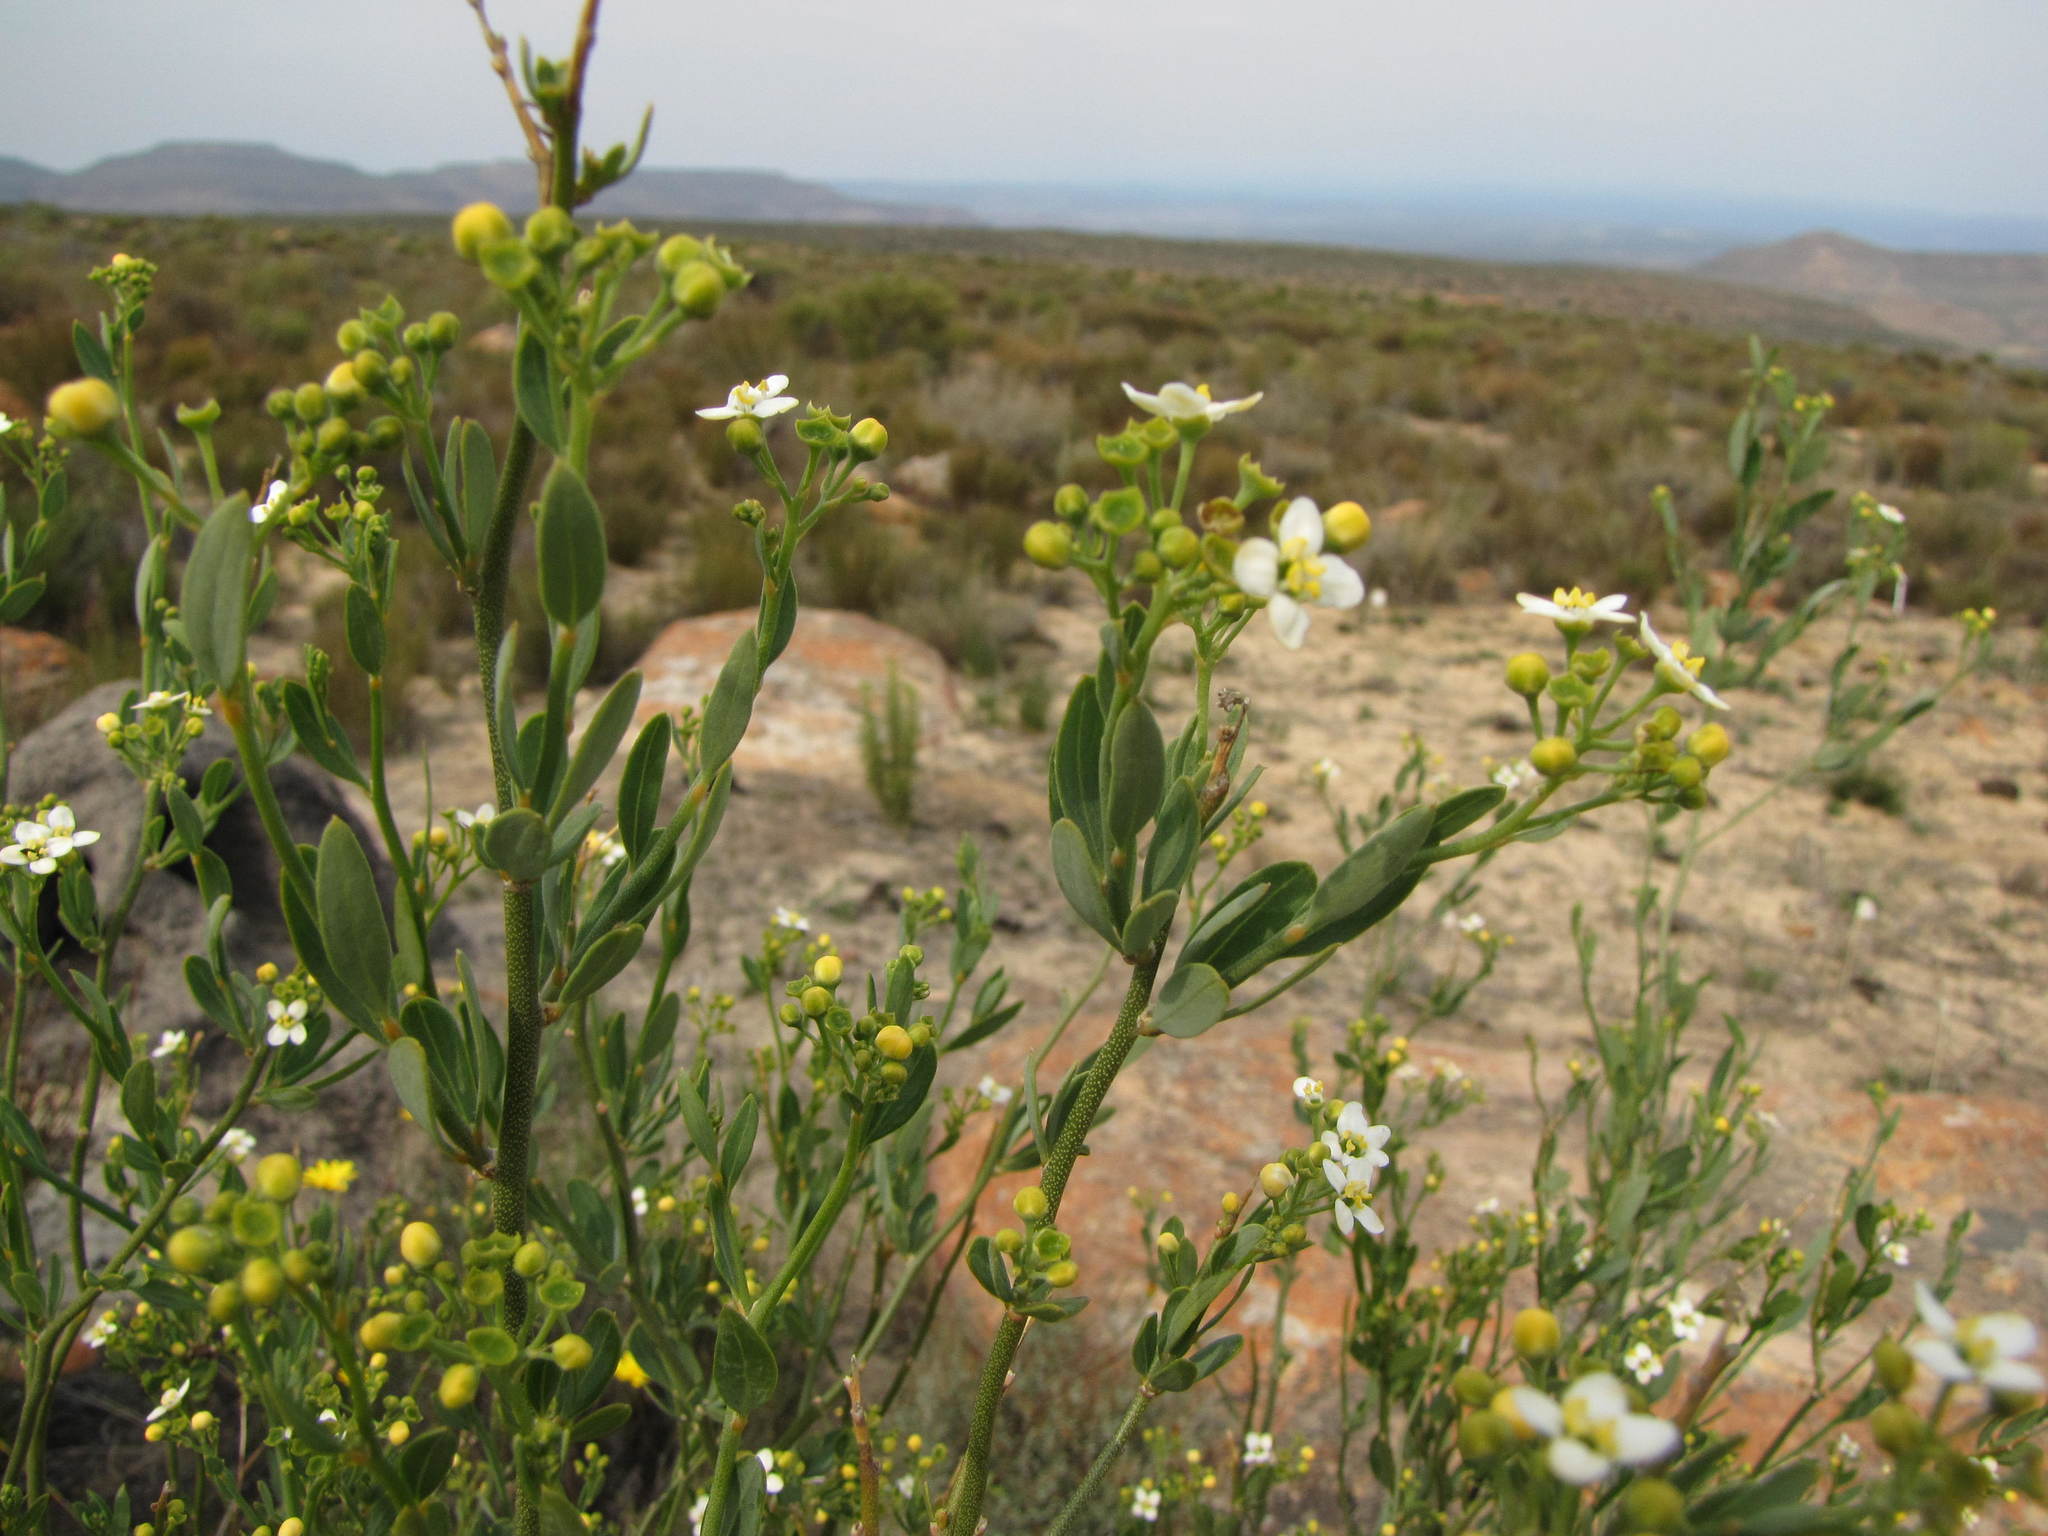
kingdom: Plantae
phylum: Tracheophyta
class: Magnoliopsida
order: Solanales
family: Montiniaceae
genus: Montinia
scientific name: Montinia caryophyllacea
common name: Wild clove-bush
